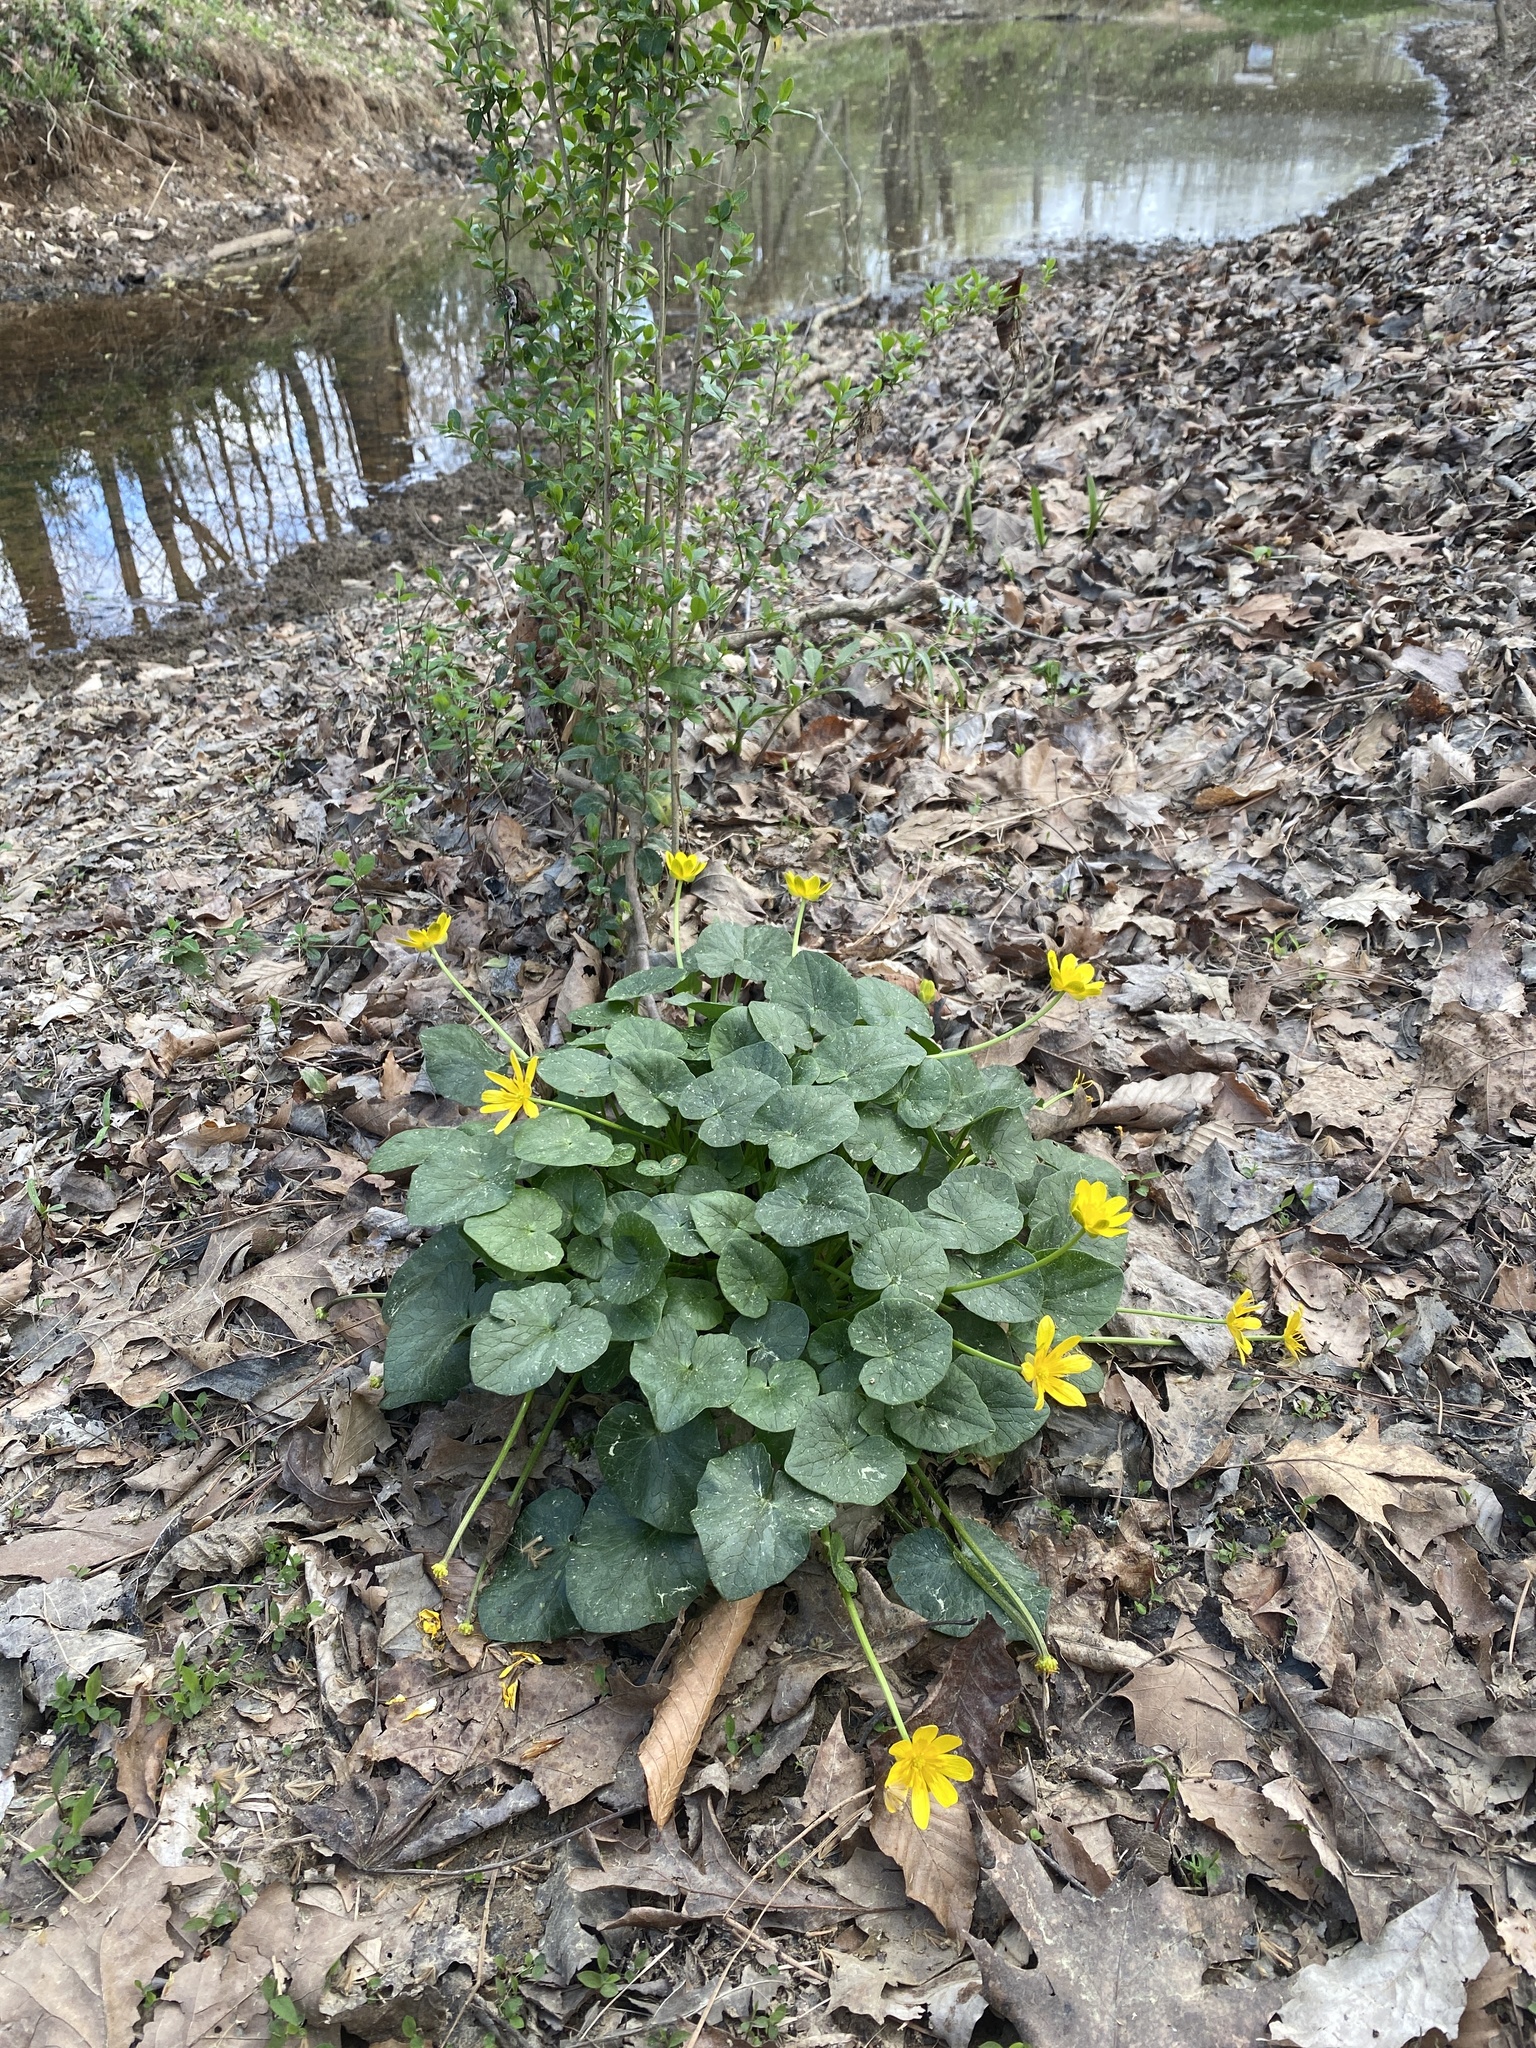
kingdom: Plantae
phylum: Tracheophyta
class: Magnoliopsida
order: Ranunculales
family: Ranunculaceae
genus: Ficaria
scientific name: Ficaria verna
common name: Lesser celandine
